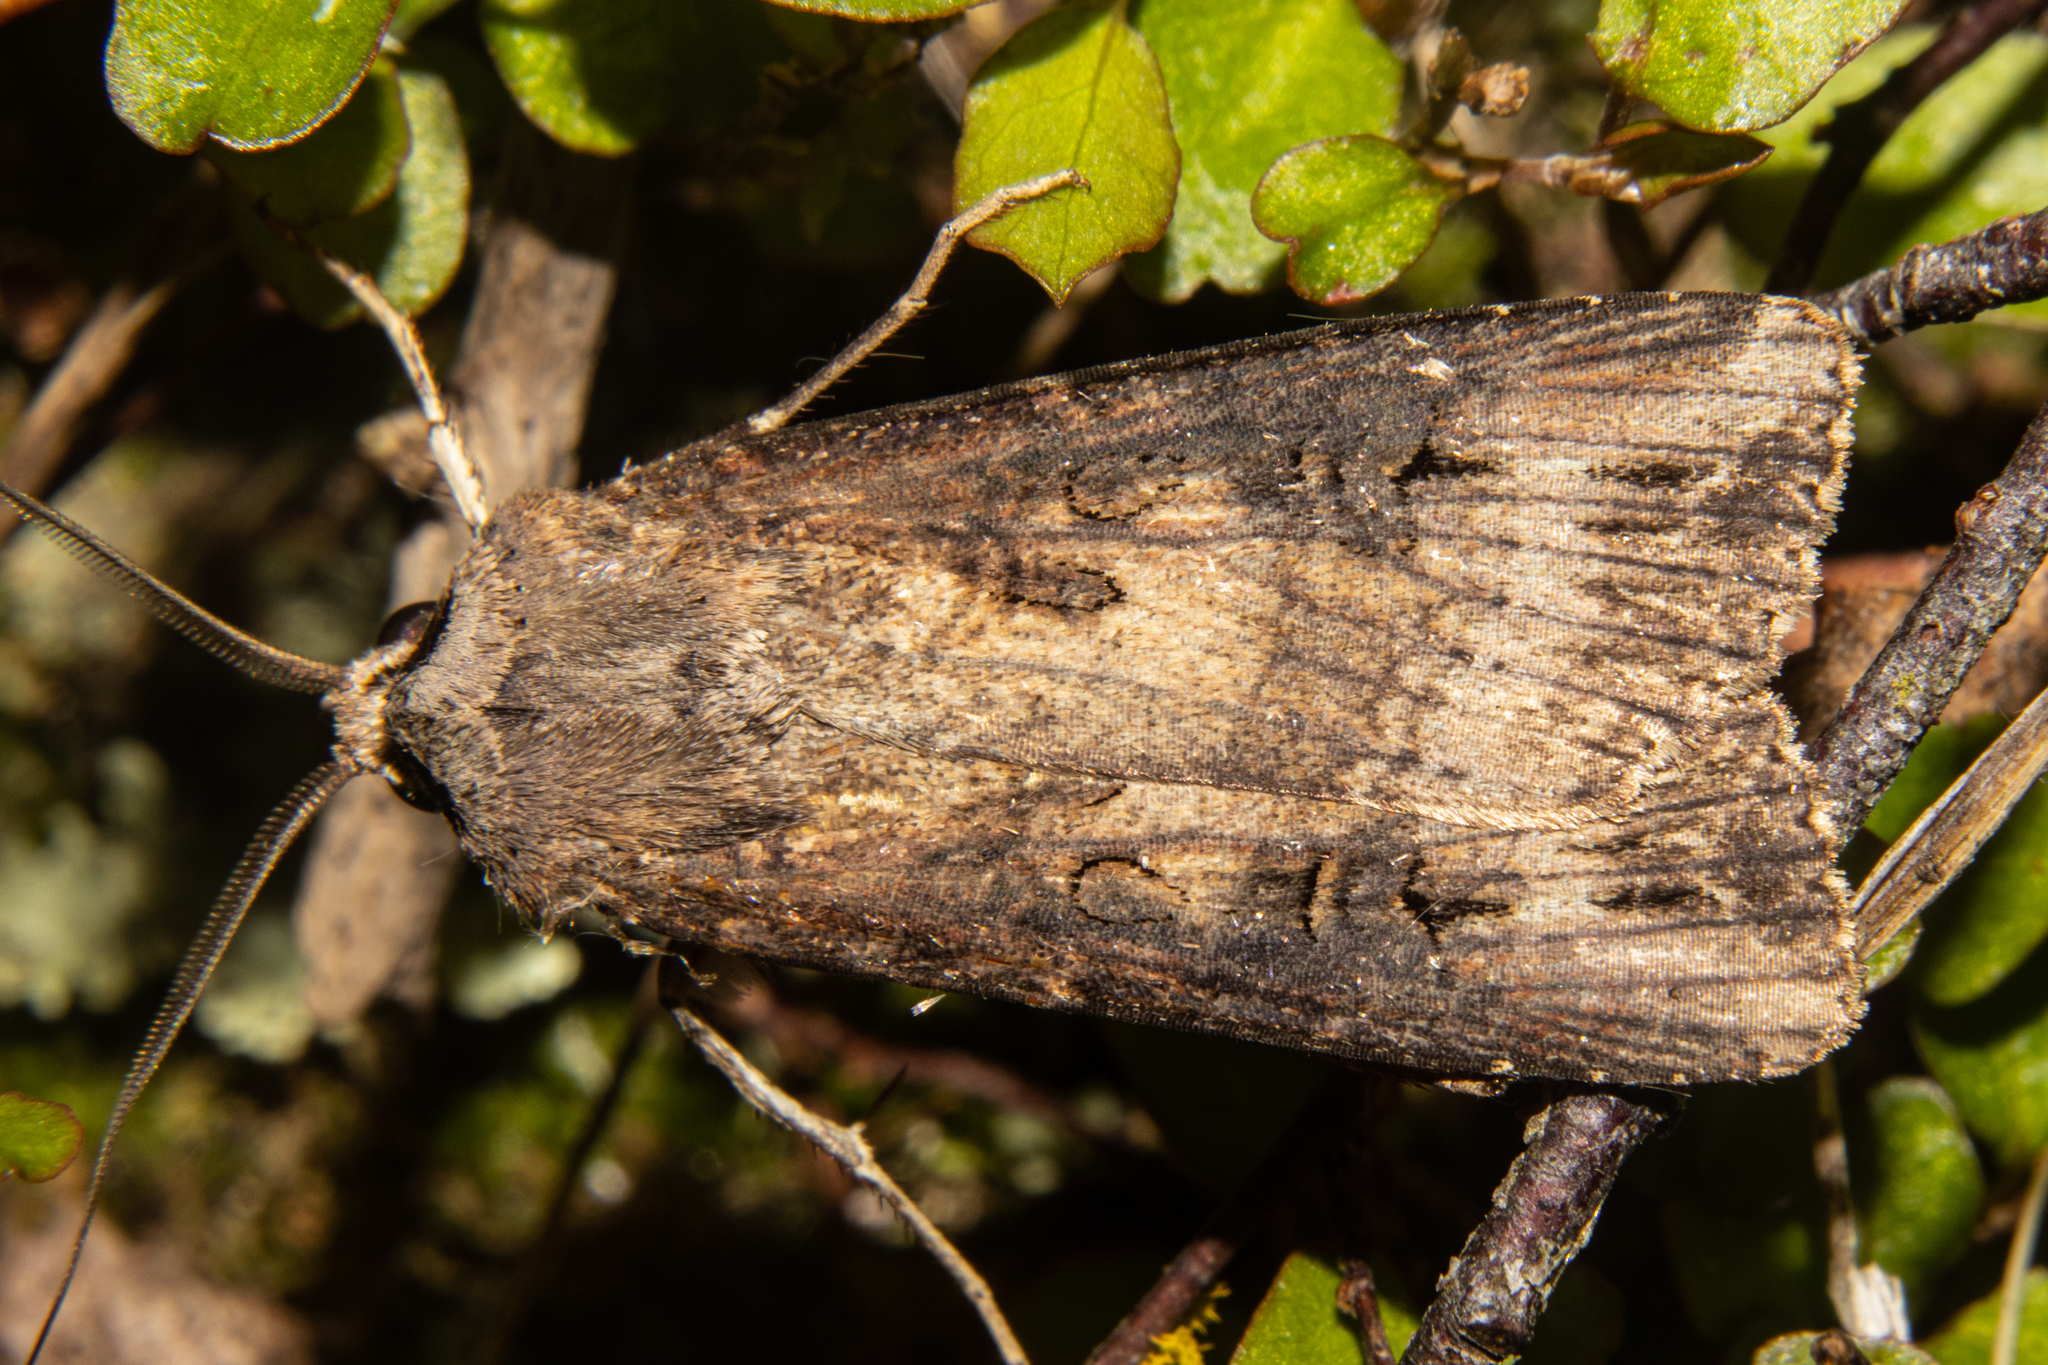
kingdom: Animalia
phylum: Arthropoda
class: Insecta
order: Lepidoptera
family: Noctuidae
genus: Agrotis
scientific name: Agrotis ipsilon
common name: Dark sword-grass
